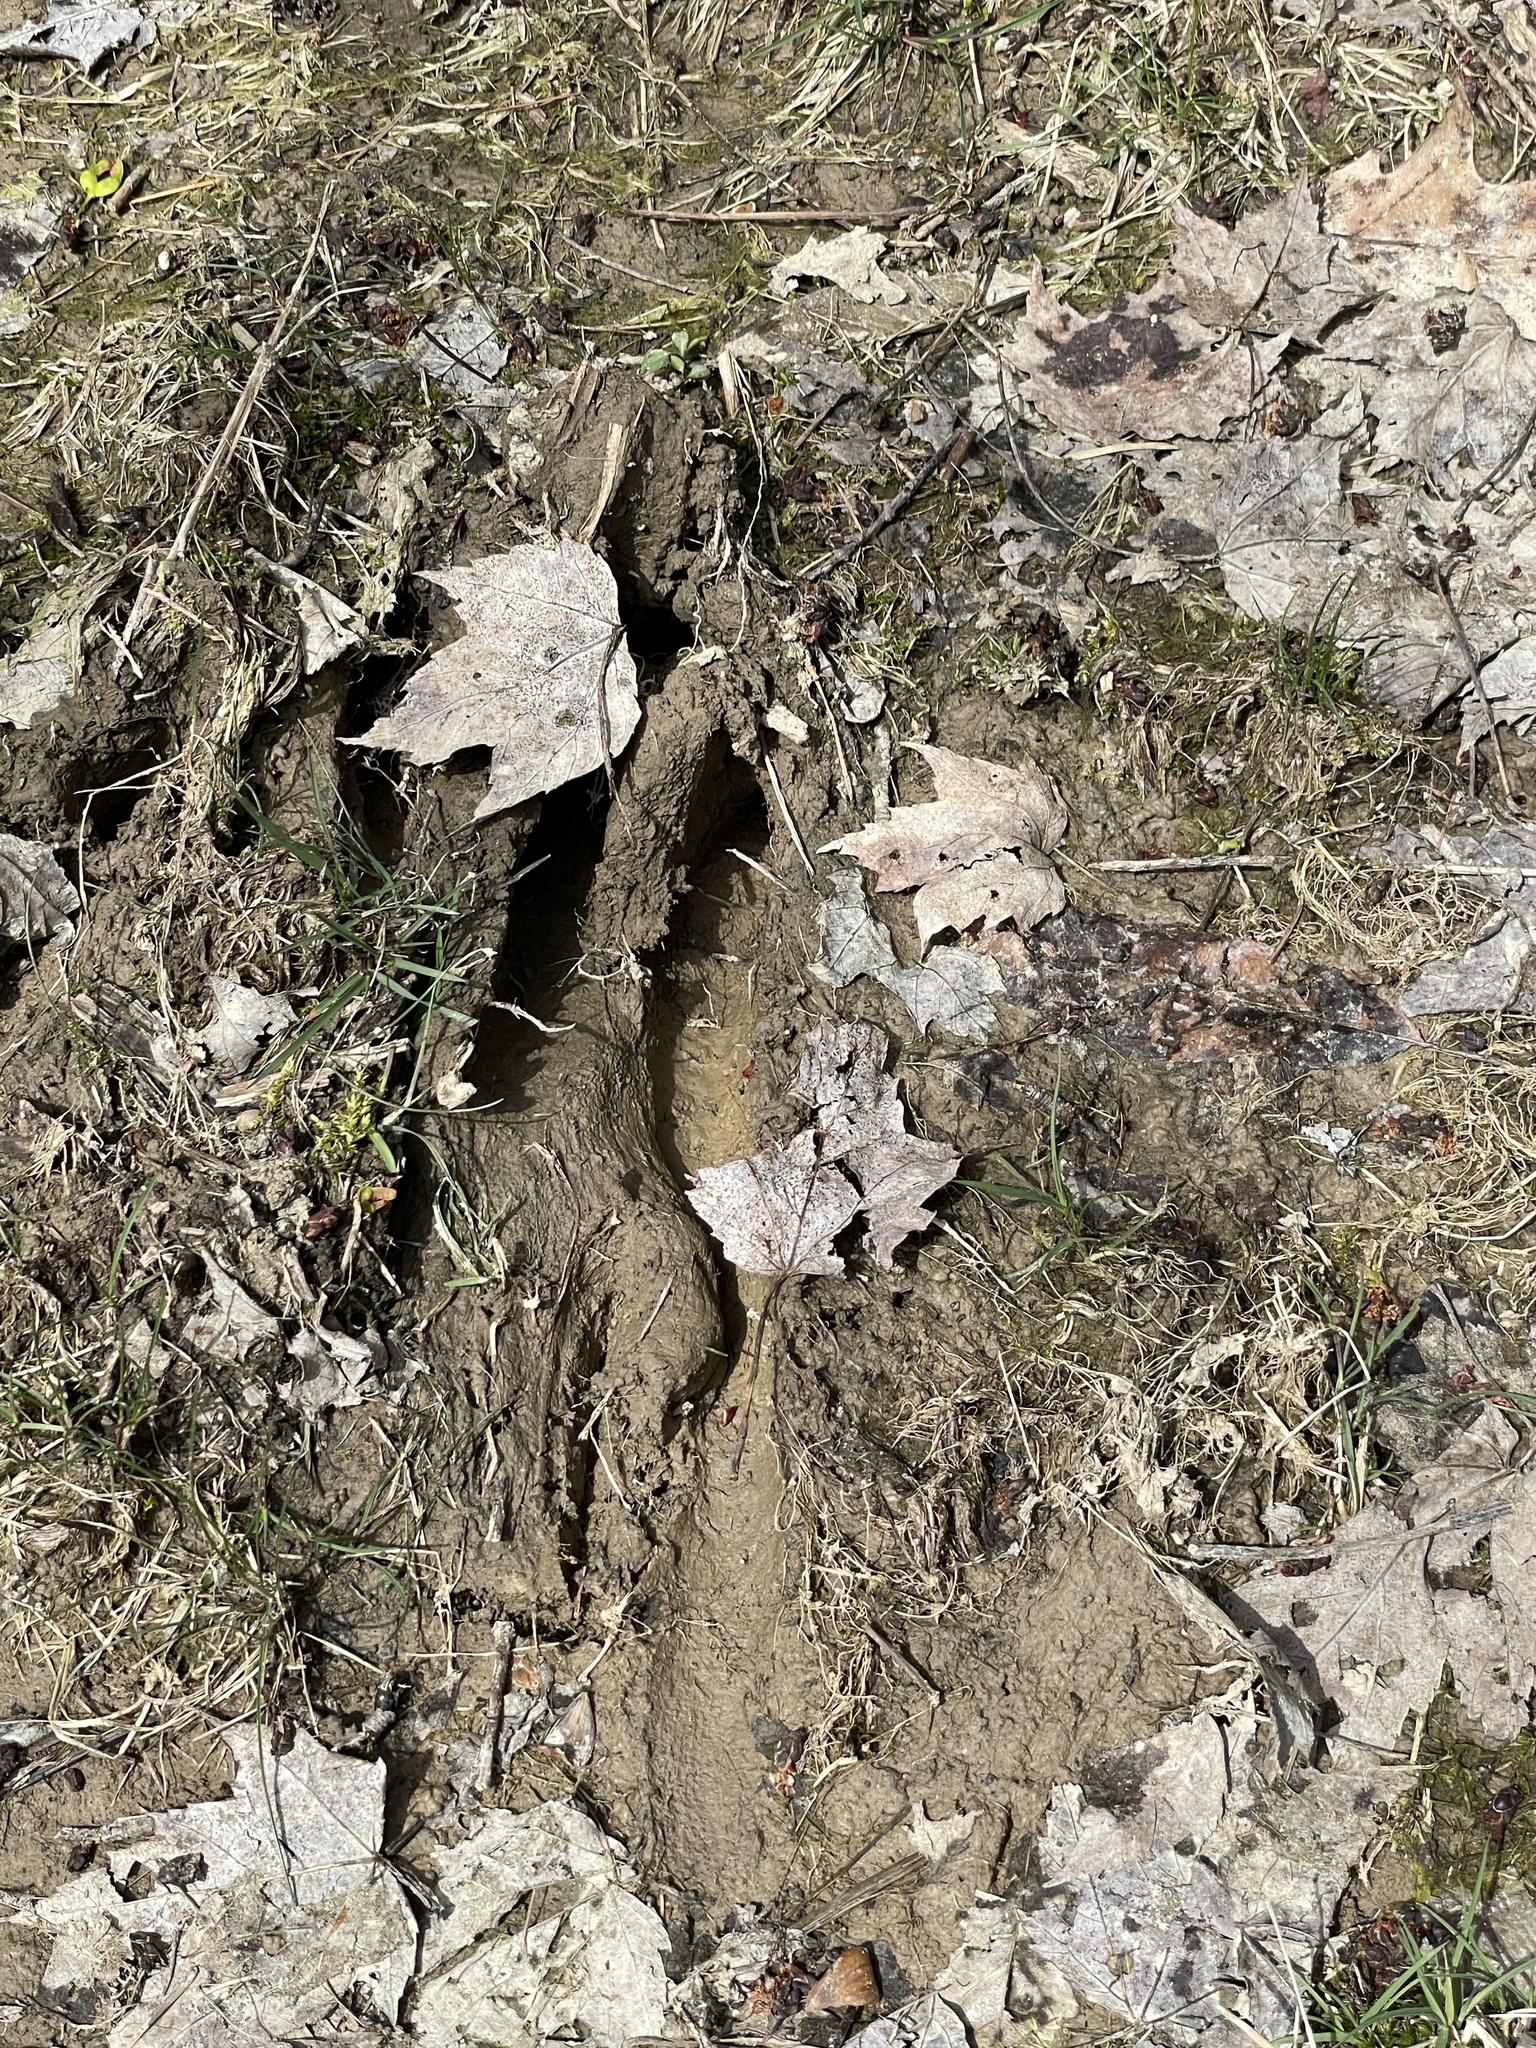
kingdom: Animalia
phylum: Chordata
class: Mammalia
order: Artiodactyla
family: Cervidae
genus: Odocoileus
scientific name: Odocoileus virginianus
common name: White-tailed deer
